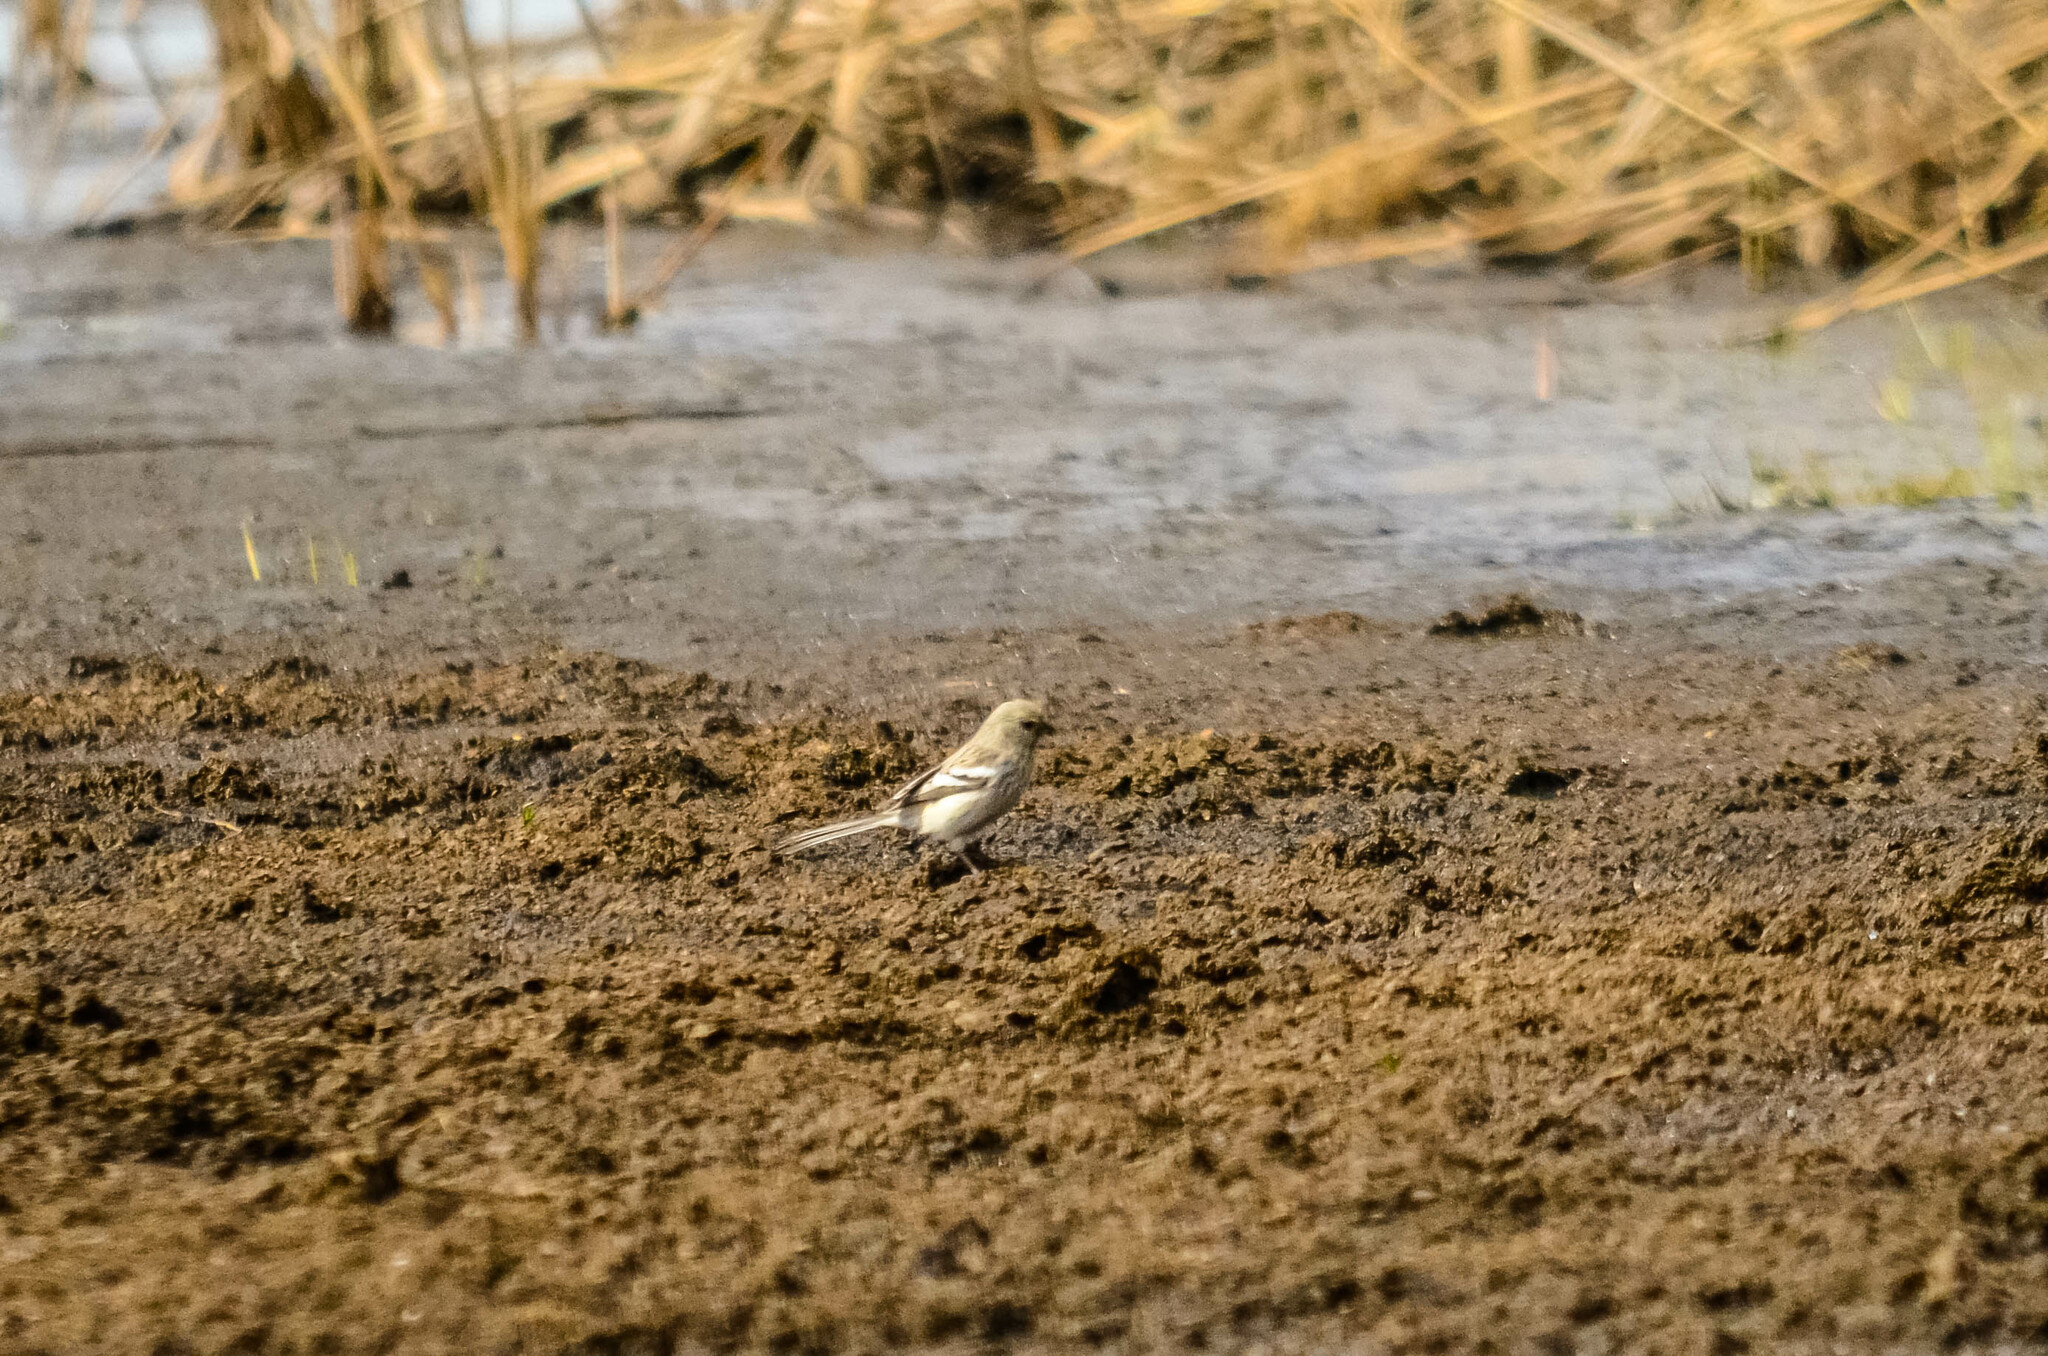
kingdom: Animalia
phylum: Chordata
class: Aves
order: Passeriformes
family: Fringillidae
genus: Carpodacus
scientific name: Carpodacus sibiricus
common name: Long-tailed rosefinch
